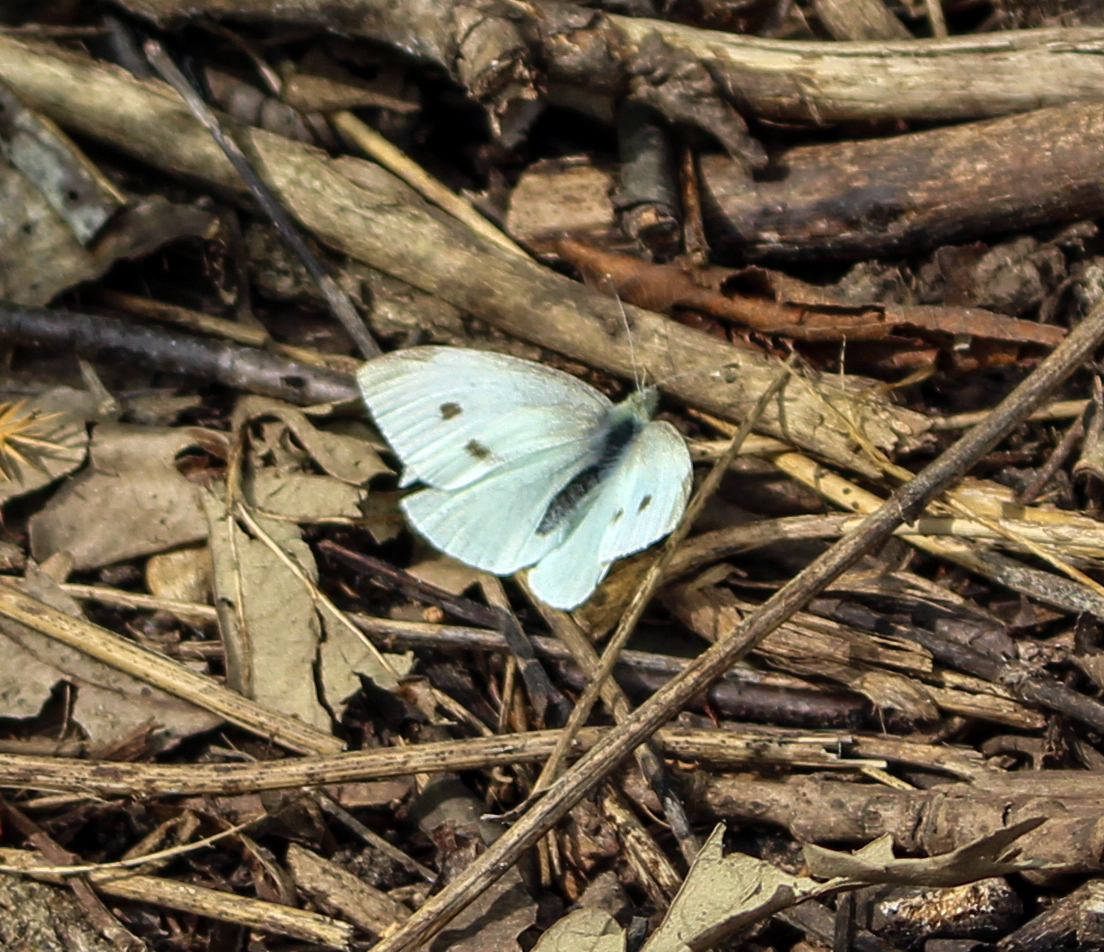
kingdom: Animalia
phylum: Arthropoda
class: Insecta
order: Lepidoptera
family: Pieridae
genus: Pieris
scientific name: Pieris rapae
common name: Small white
